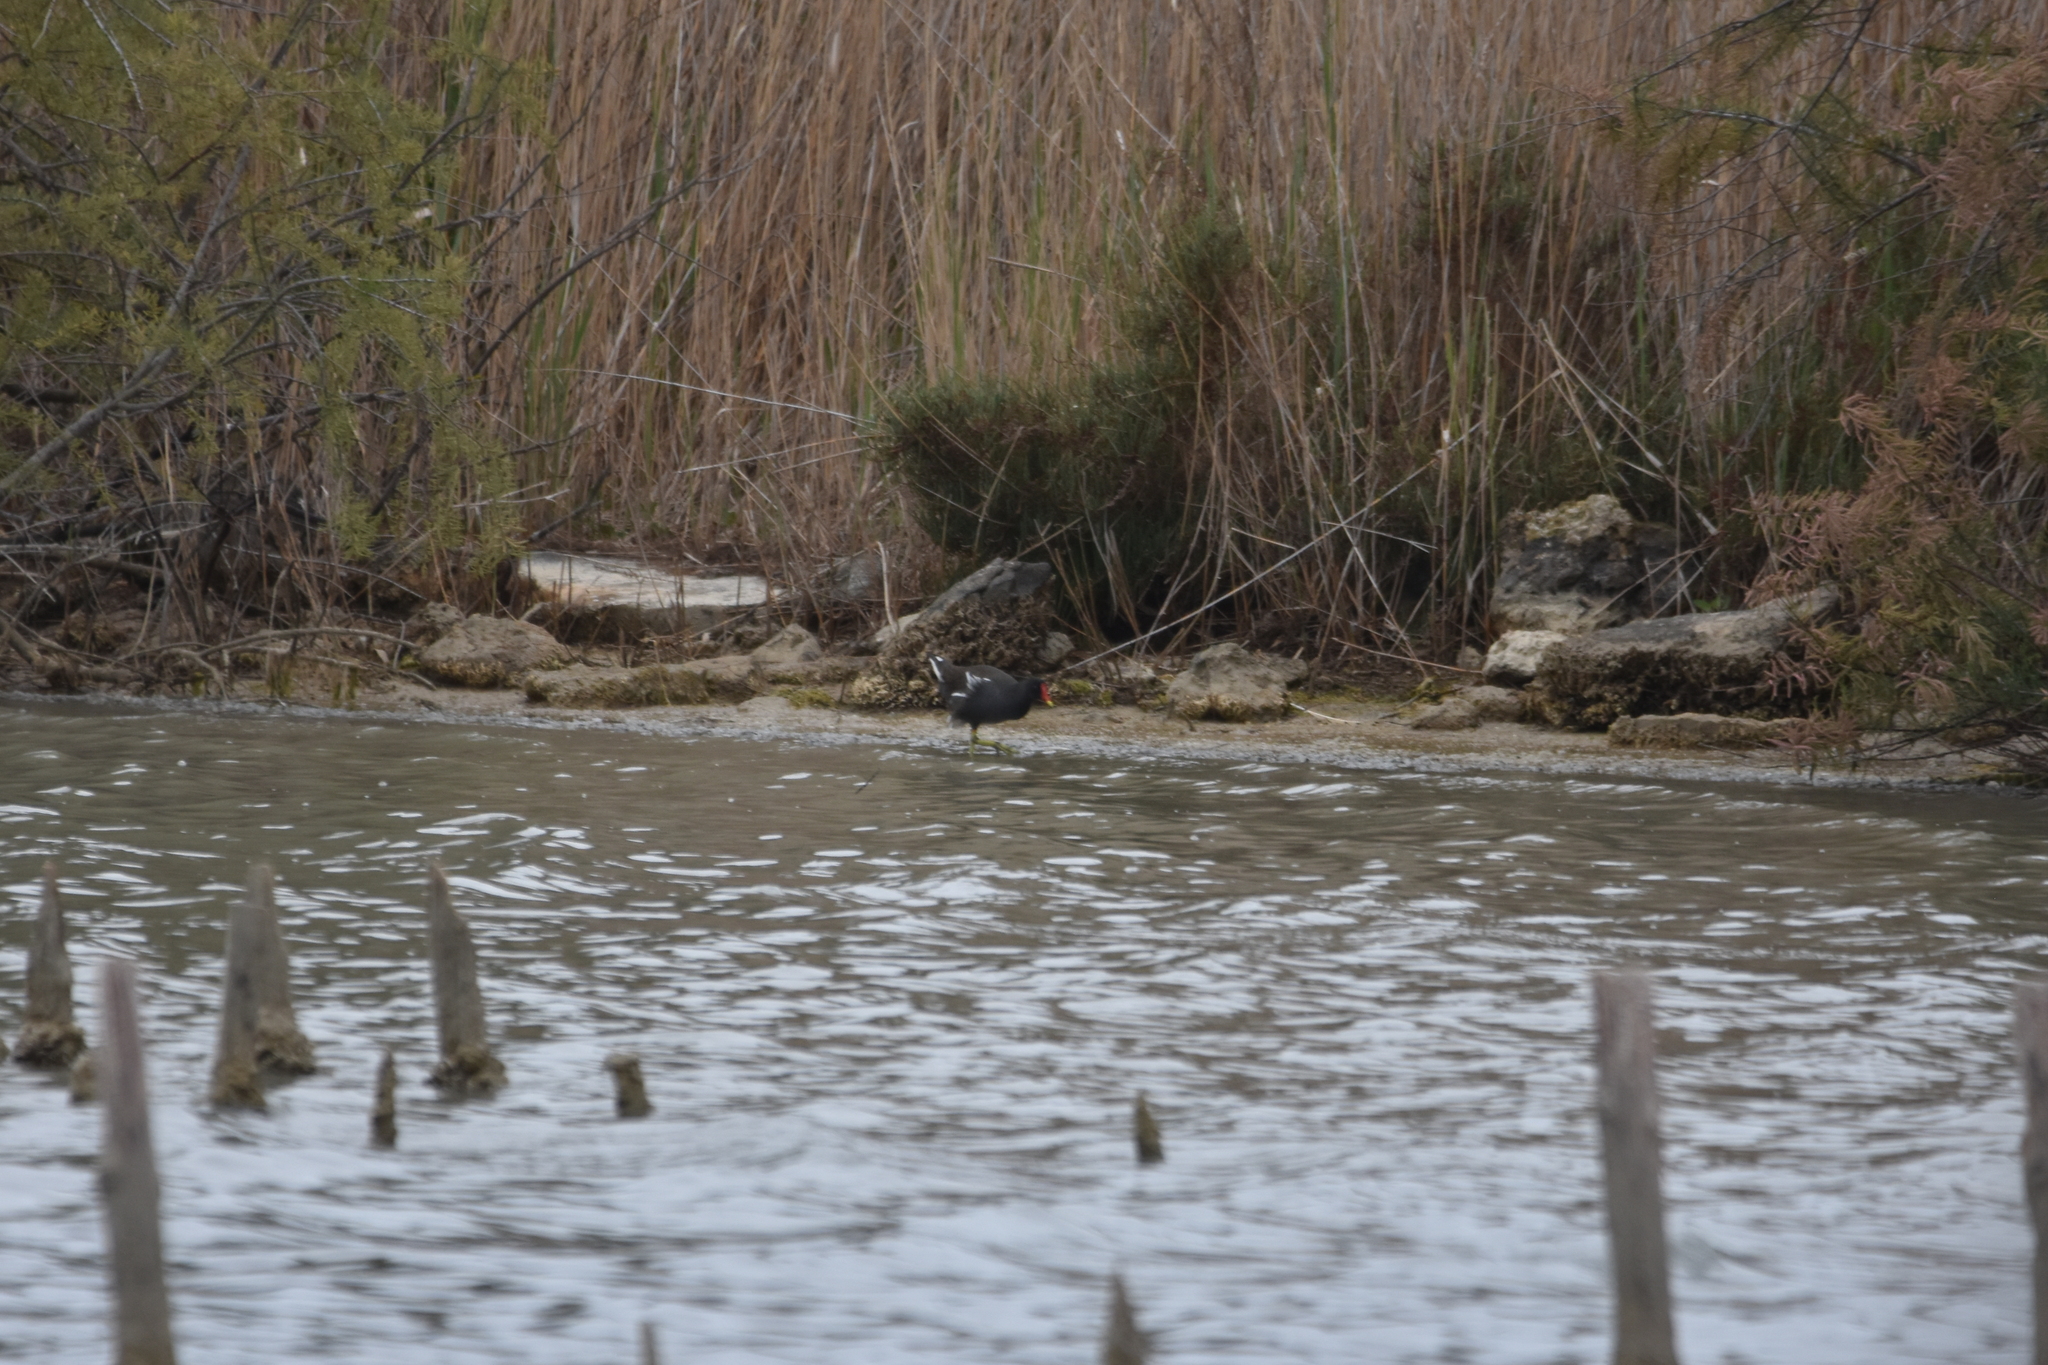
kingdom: Animalia
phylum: Chordata
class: Aves
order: Gruiformes
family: Rallidae
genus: Gallinula
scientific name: Gallinula chloropus
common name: Common moorhen
